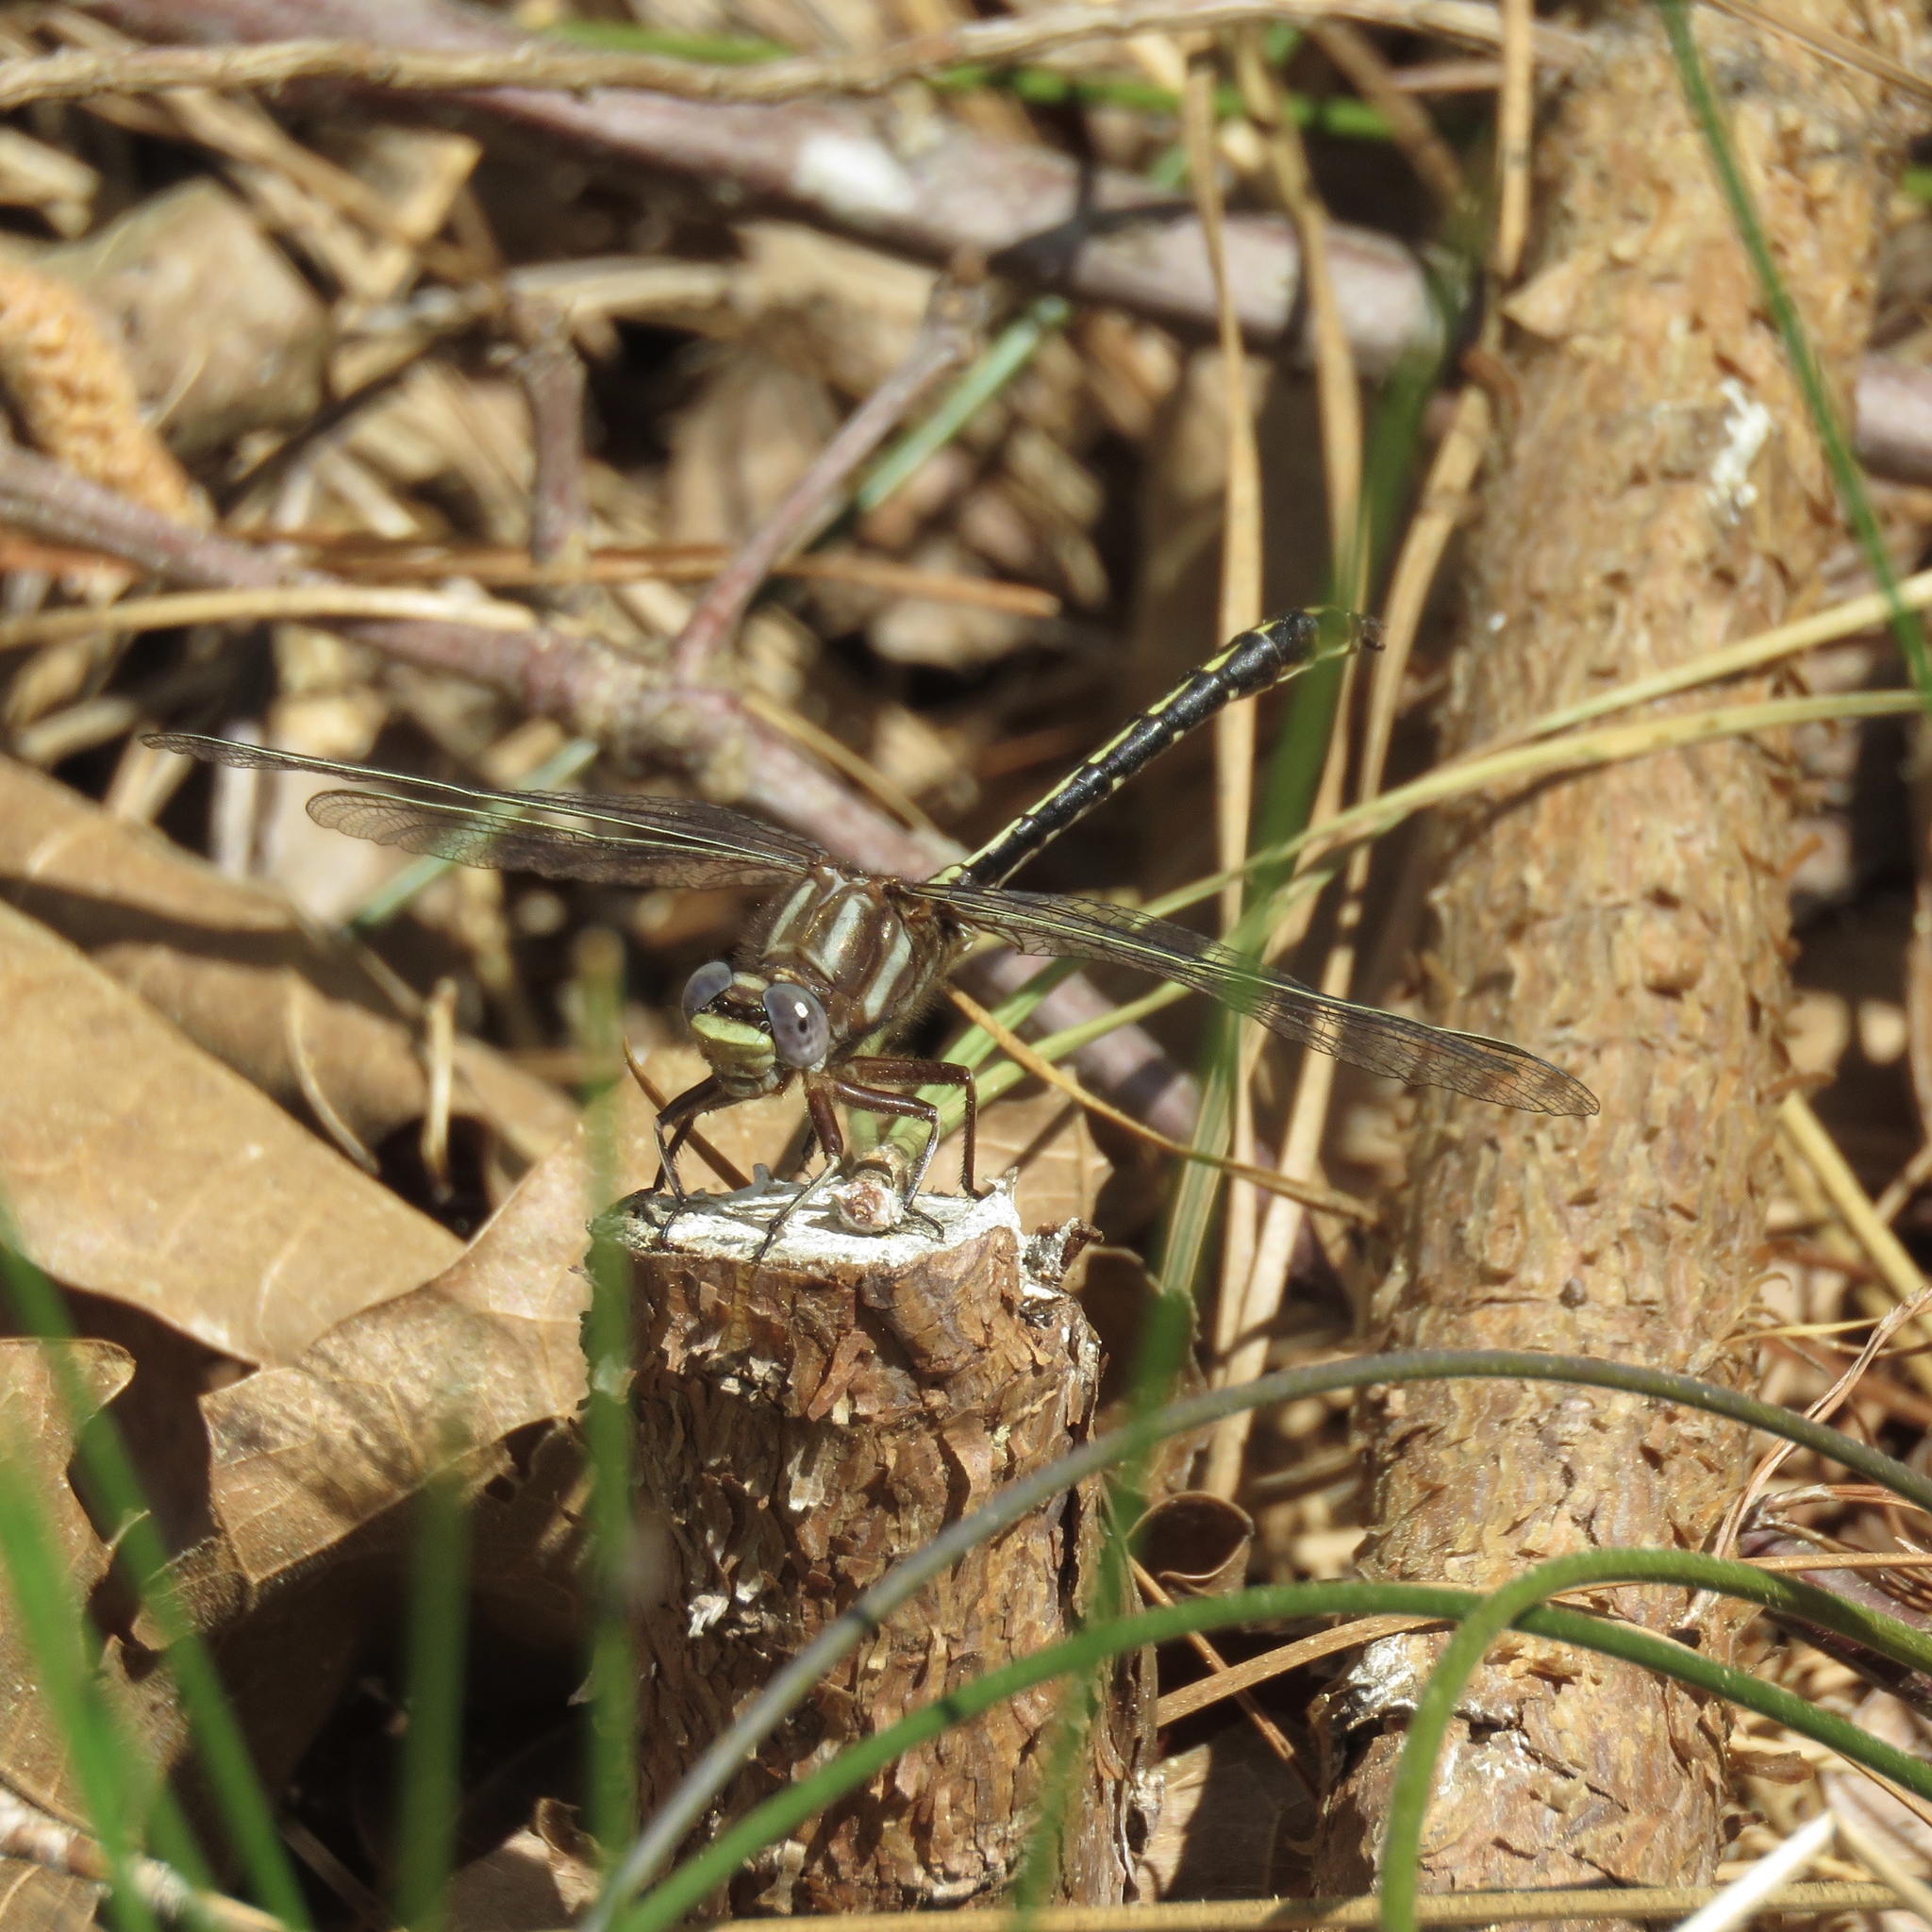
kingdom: Animalia
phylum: Arthropoda
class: Insecta
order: Odonata
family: Gomphidae
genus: Phanogomphus
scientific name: Phanogomphus lividus
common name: Ashy clubtail
